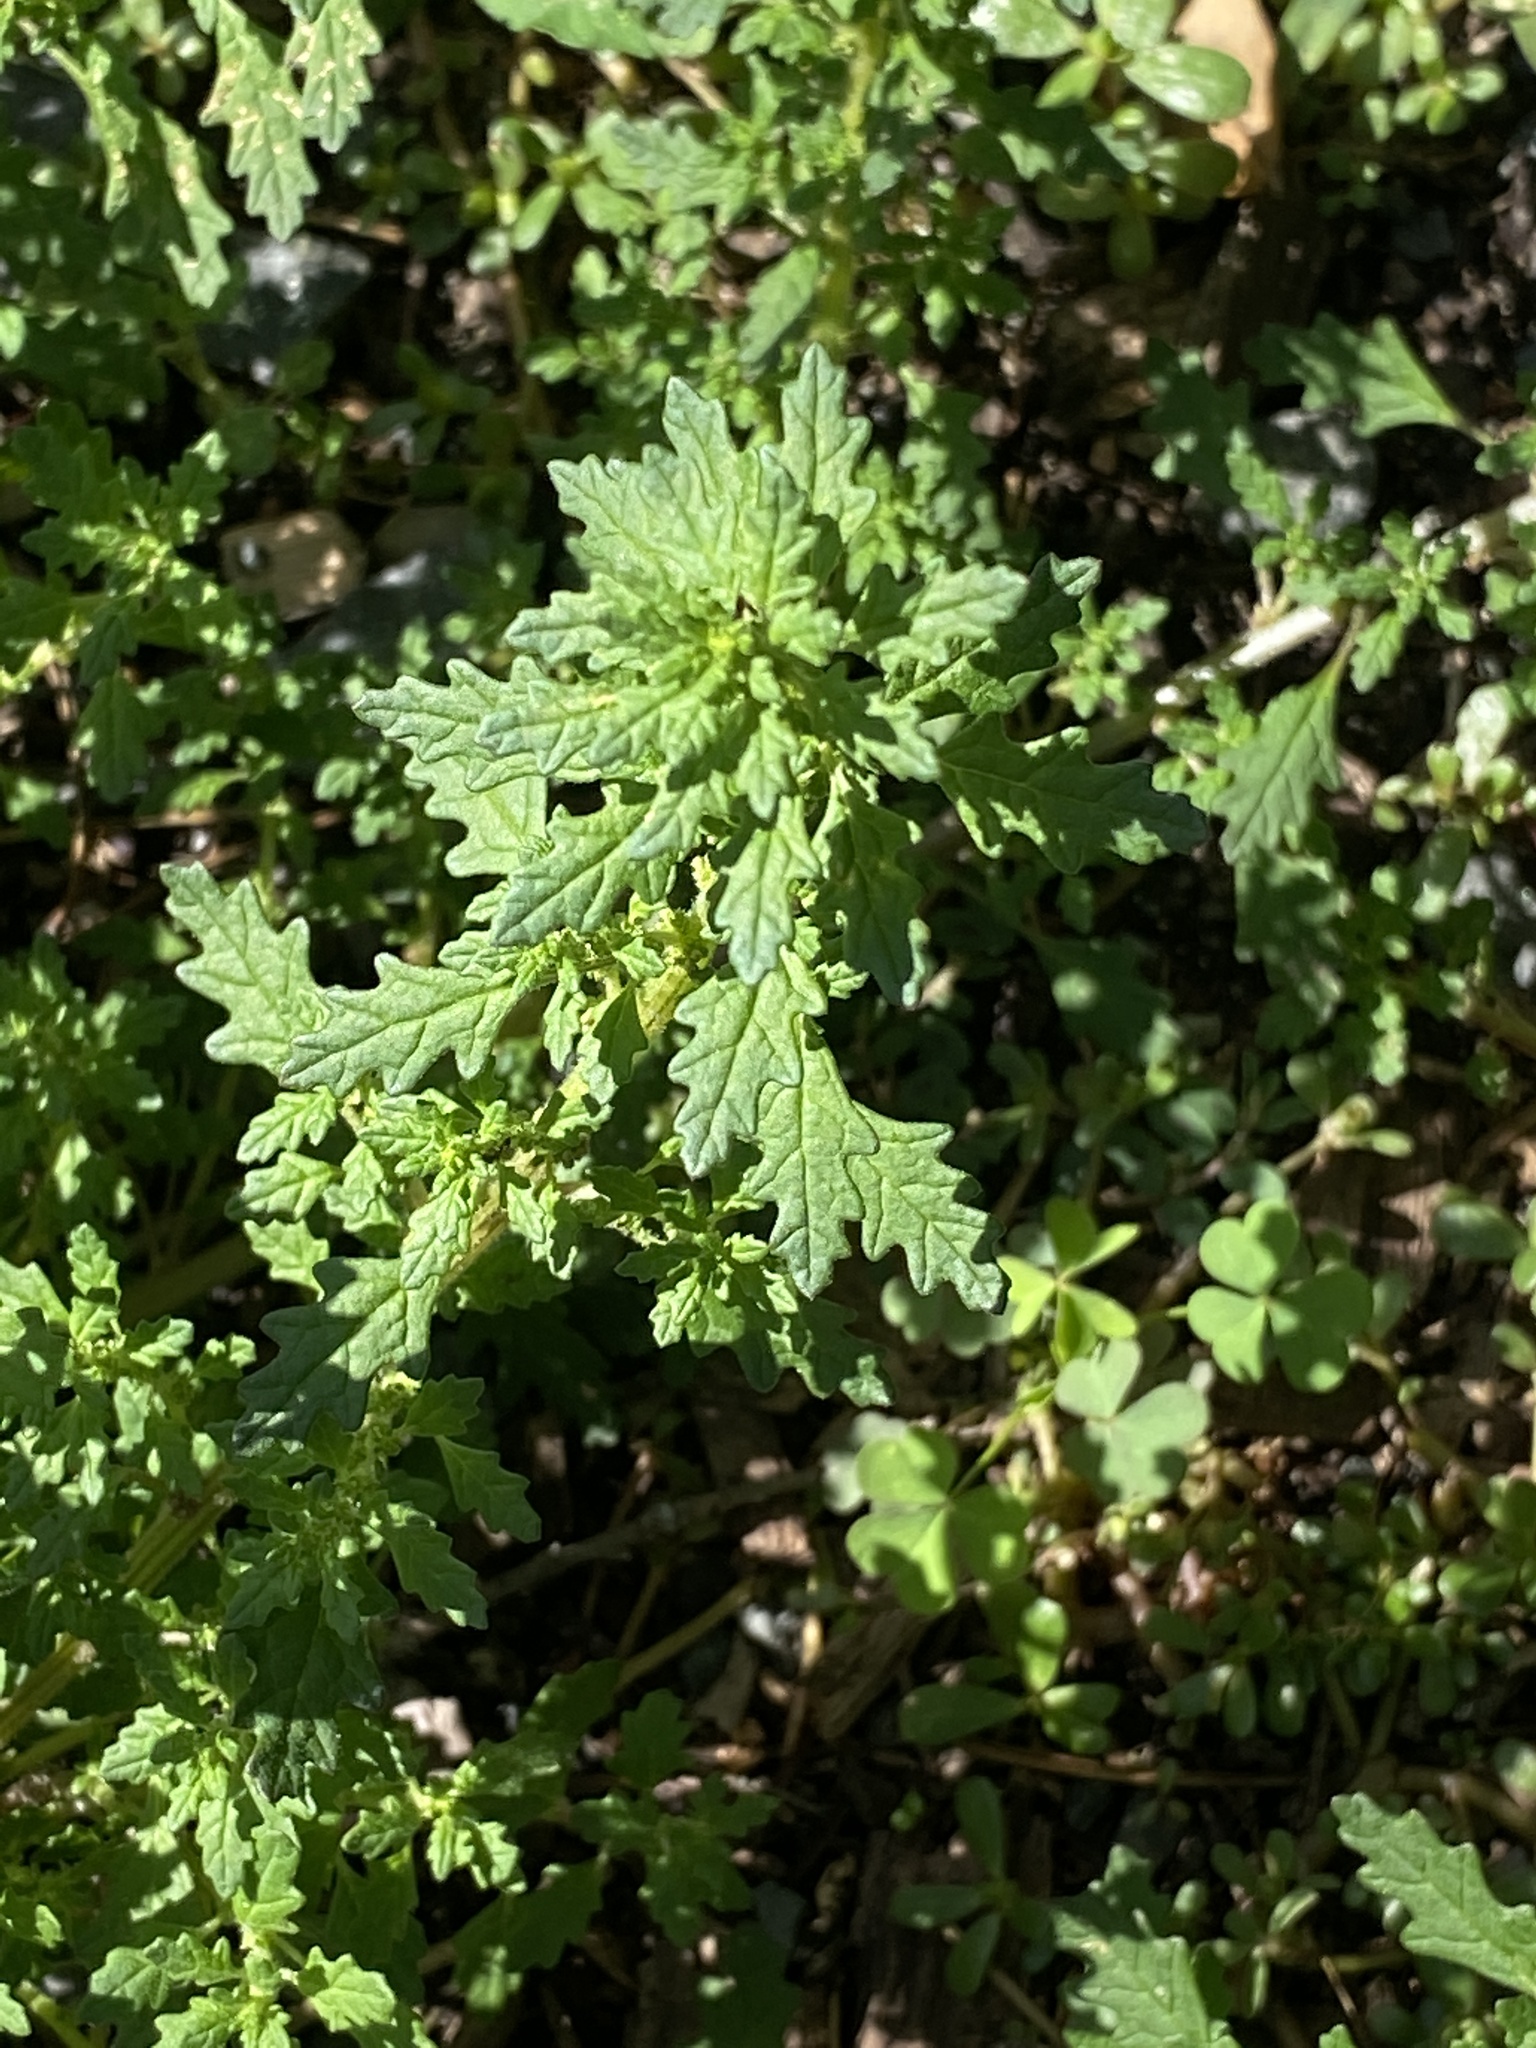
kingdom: Plantae
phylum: Tracheophyta
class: Magnoliopsida
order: Caryophyllales
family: Amaranthaceae
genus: Dysphania
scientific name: Dysphania pumilio
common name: Clammy goosefoot
